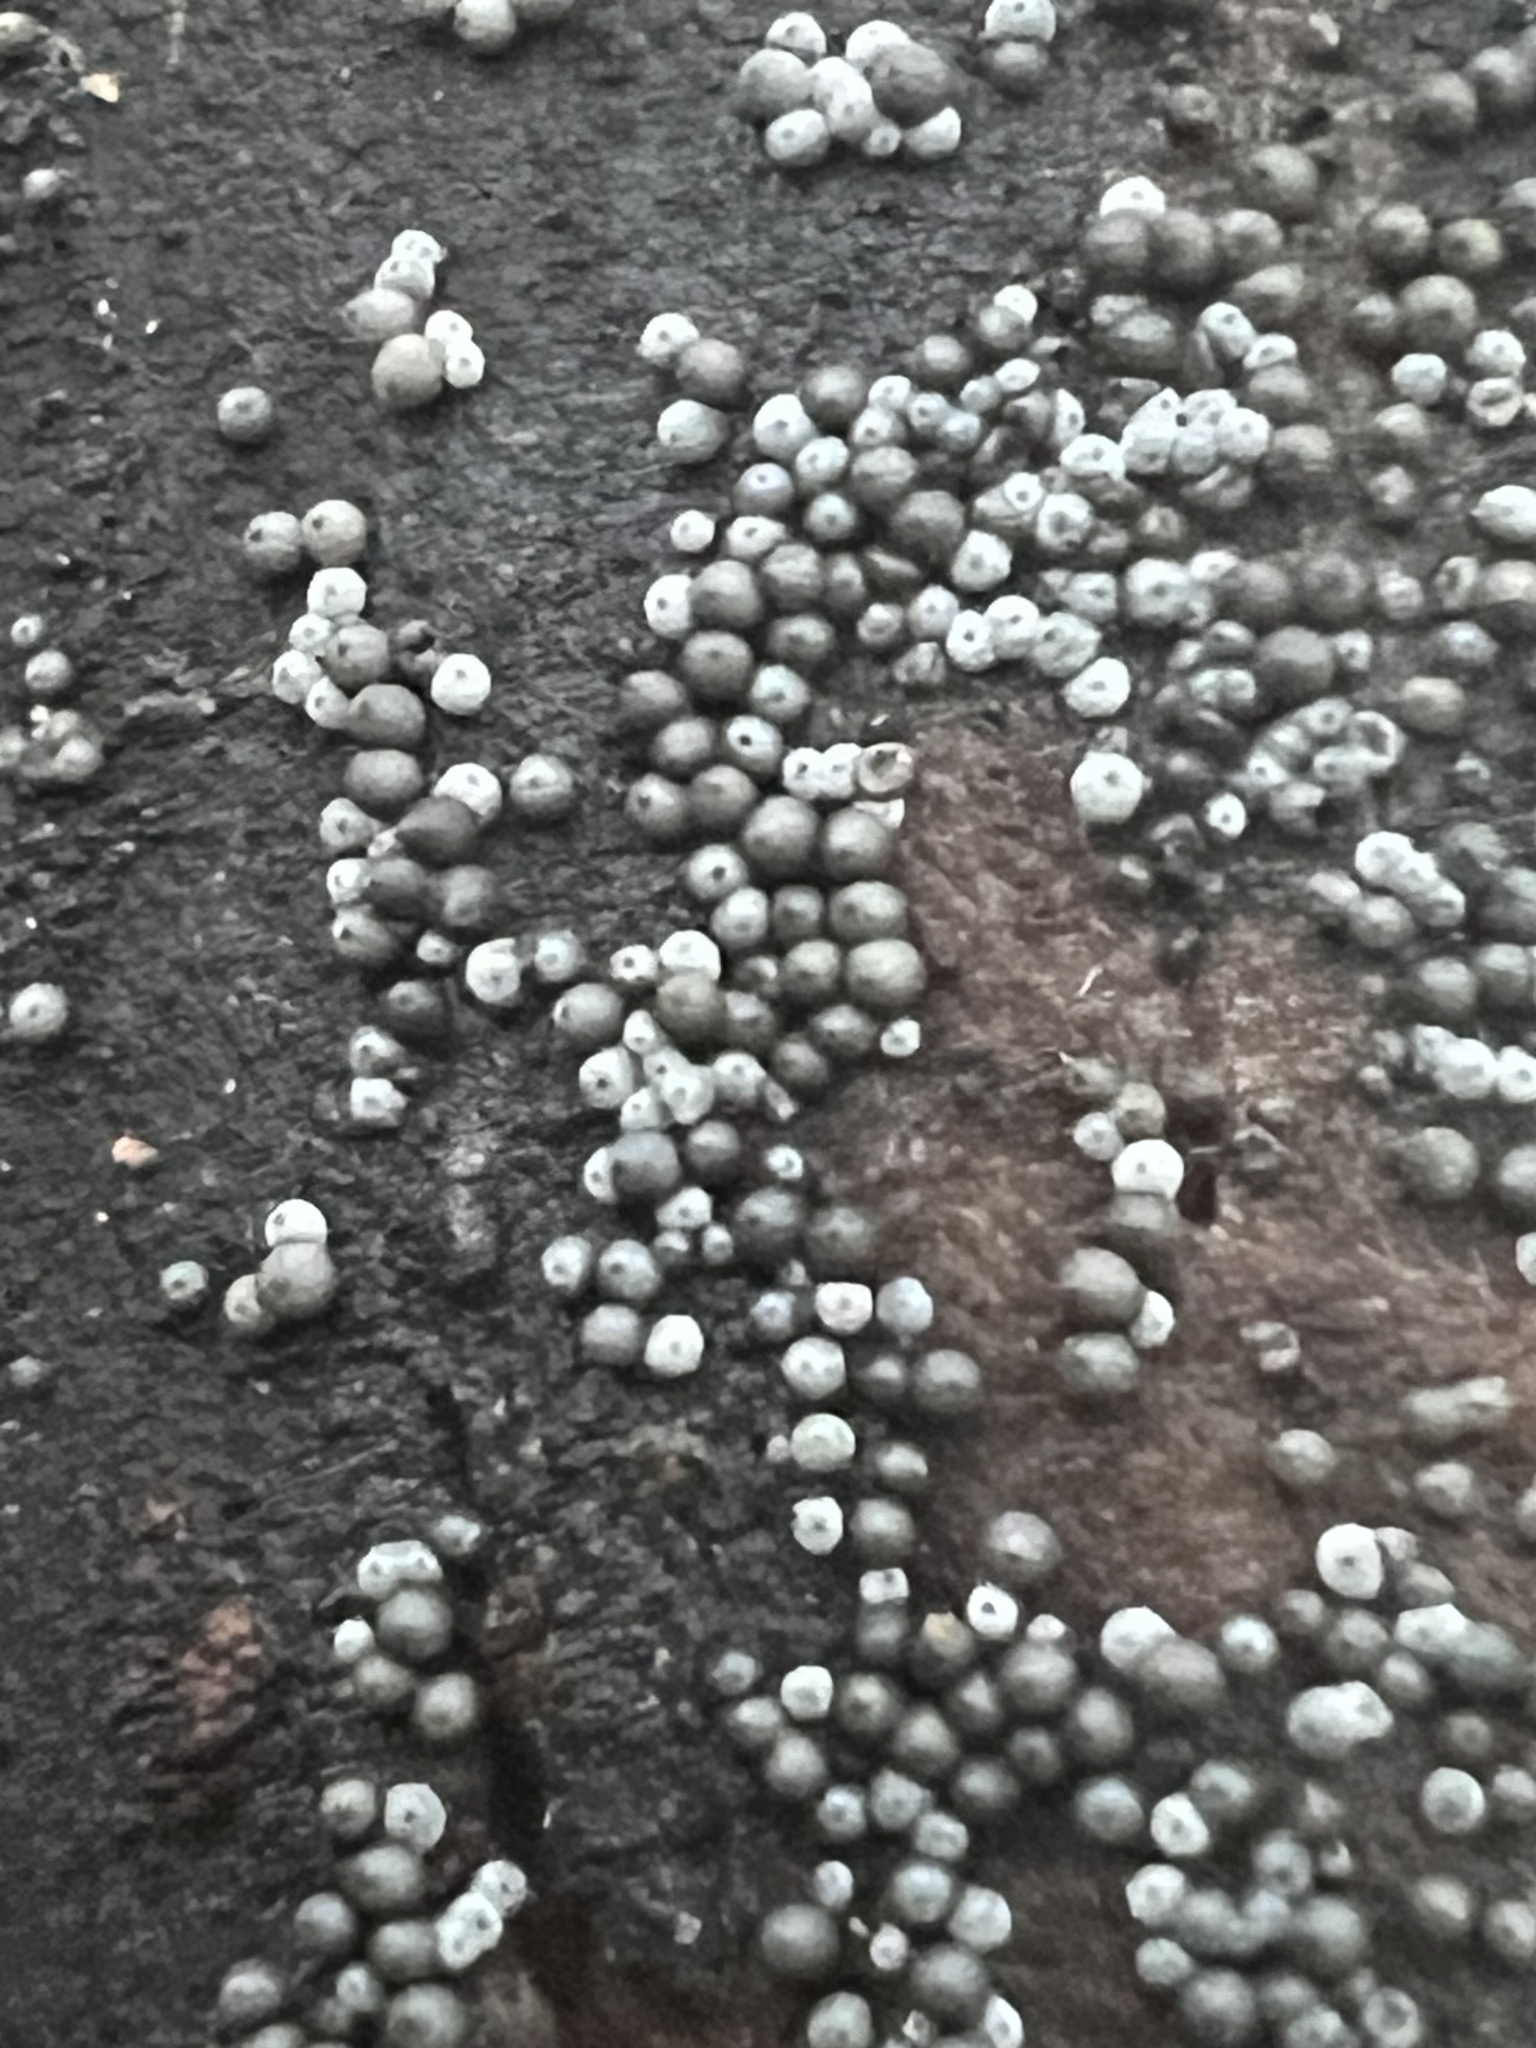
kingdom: Fungi
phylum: Ascomycota
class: Sordariomycetes
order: Sordariales
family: Lasiosphaeriaceae
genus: Lasiosphaeria
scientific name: Lasiosphaeria ovina
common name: Woolly woodwart
